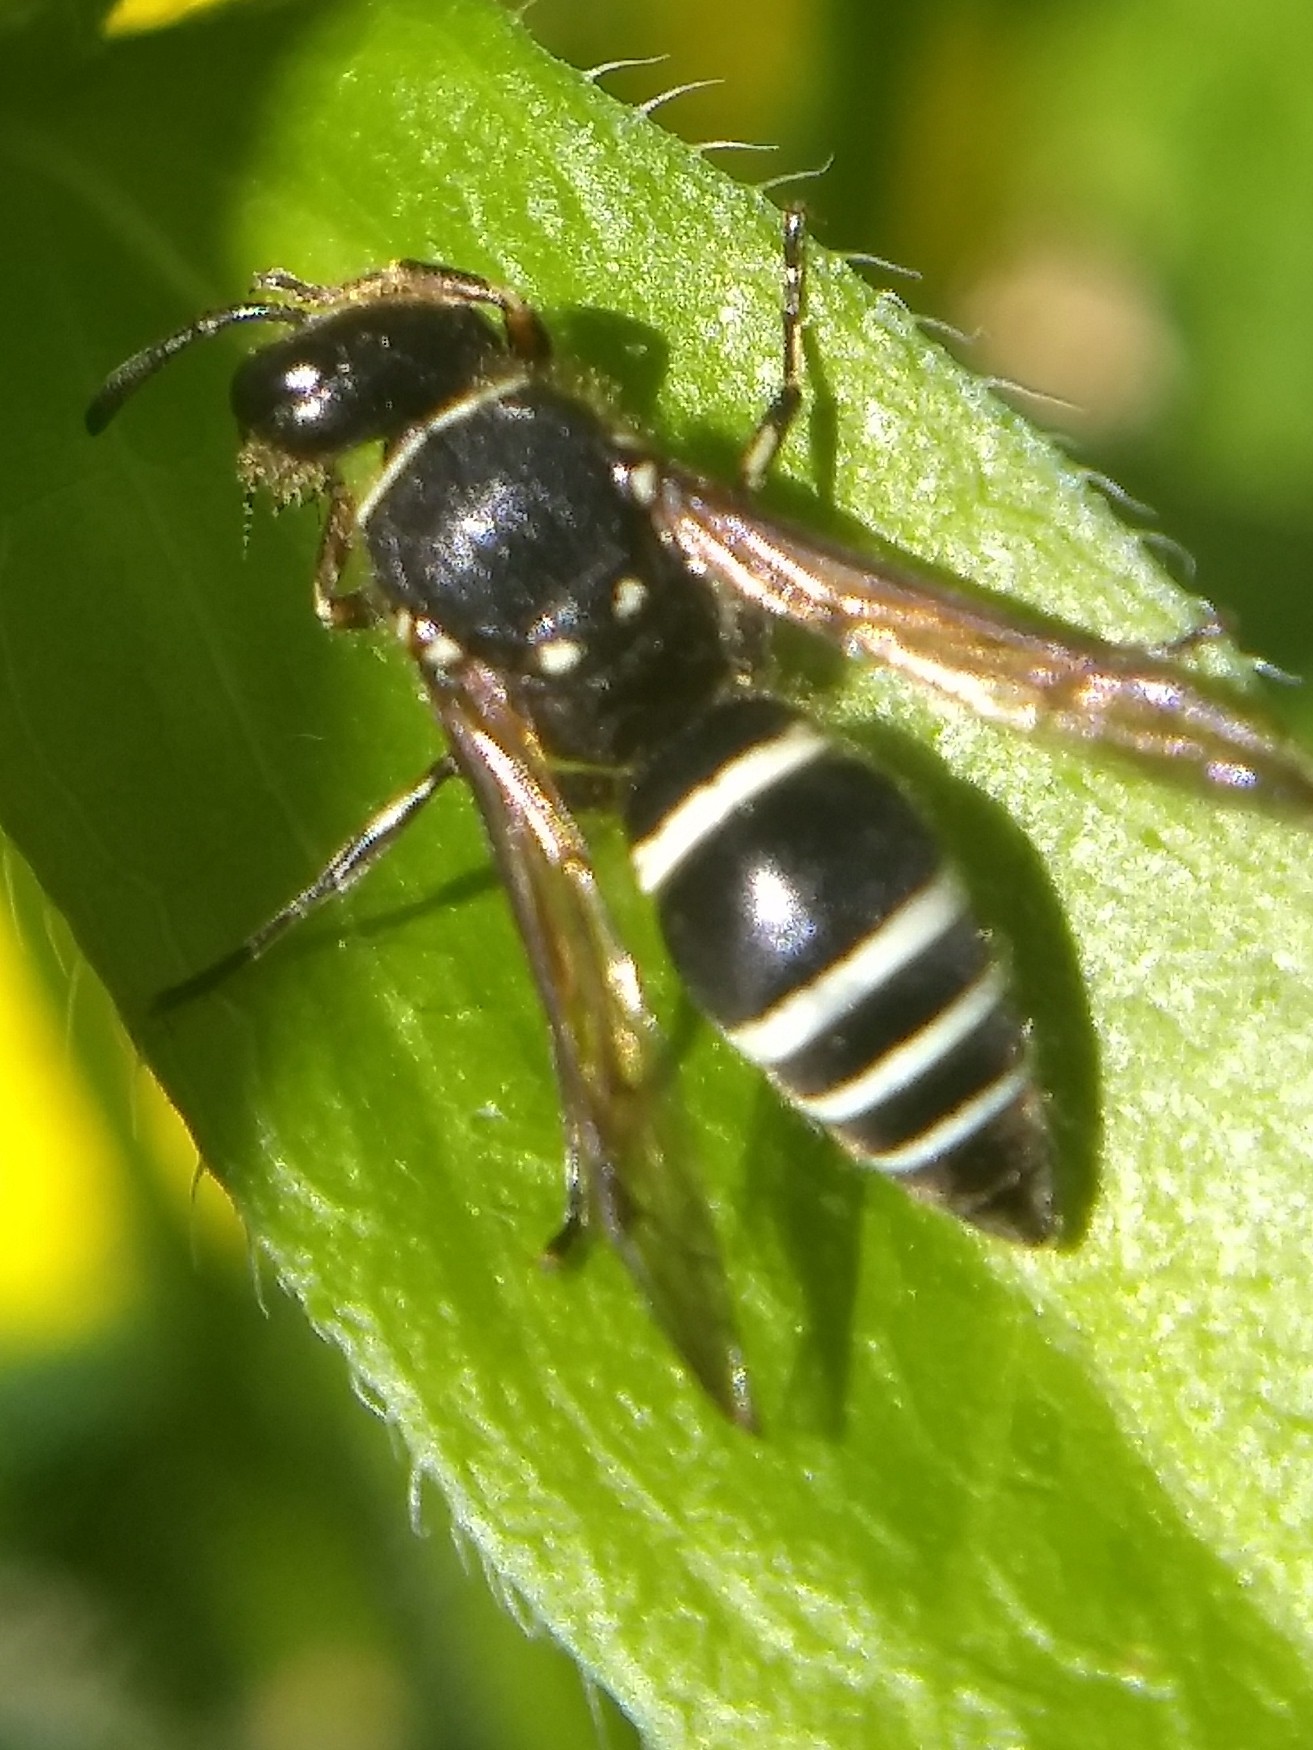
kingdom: Animalia
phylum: Arthropoda
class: Insecta
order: Hymenoptera
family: Vespidae
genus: Ancistrocerus
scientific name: Ancistrocerus albophaleratus
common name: White-banded potter wasp
